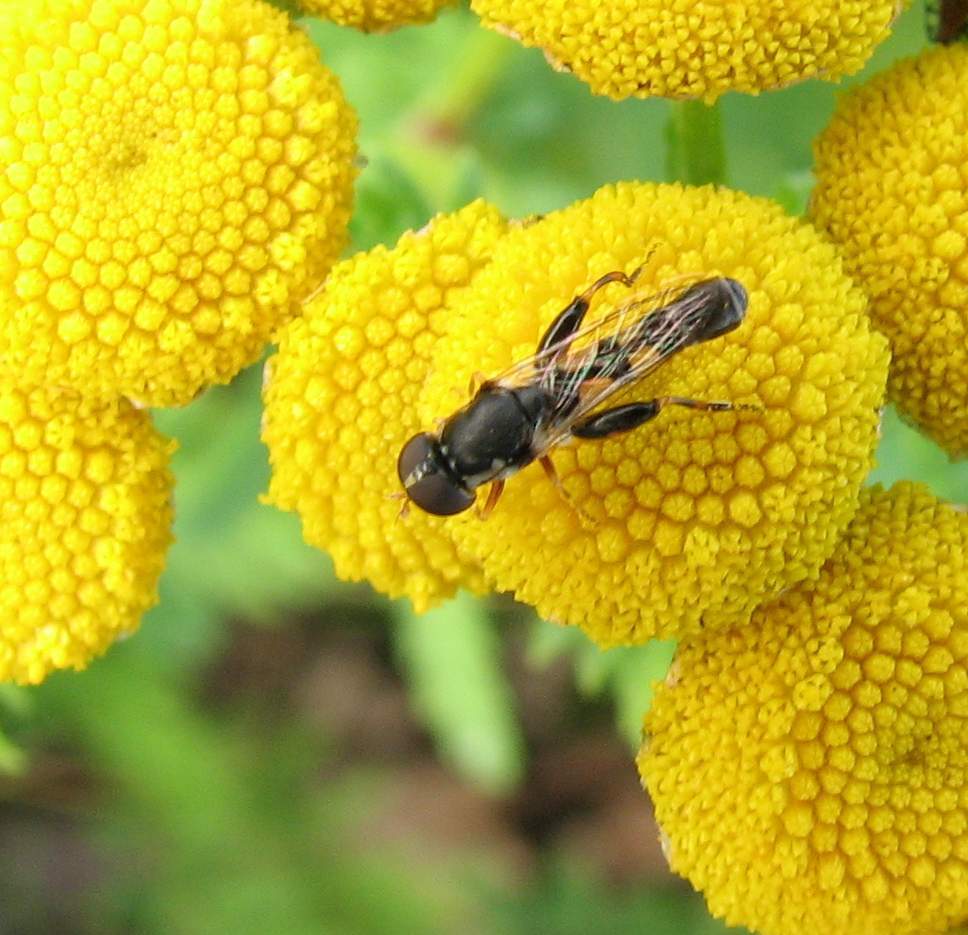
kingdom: Animalia
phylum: Arthropoda
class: Insecta
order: Diptera
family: Syrphidae
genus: Syritta
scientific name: Syritta pipiens
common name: Hover fly
